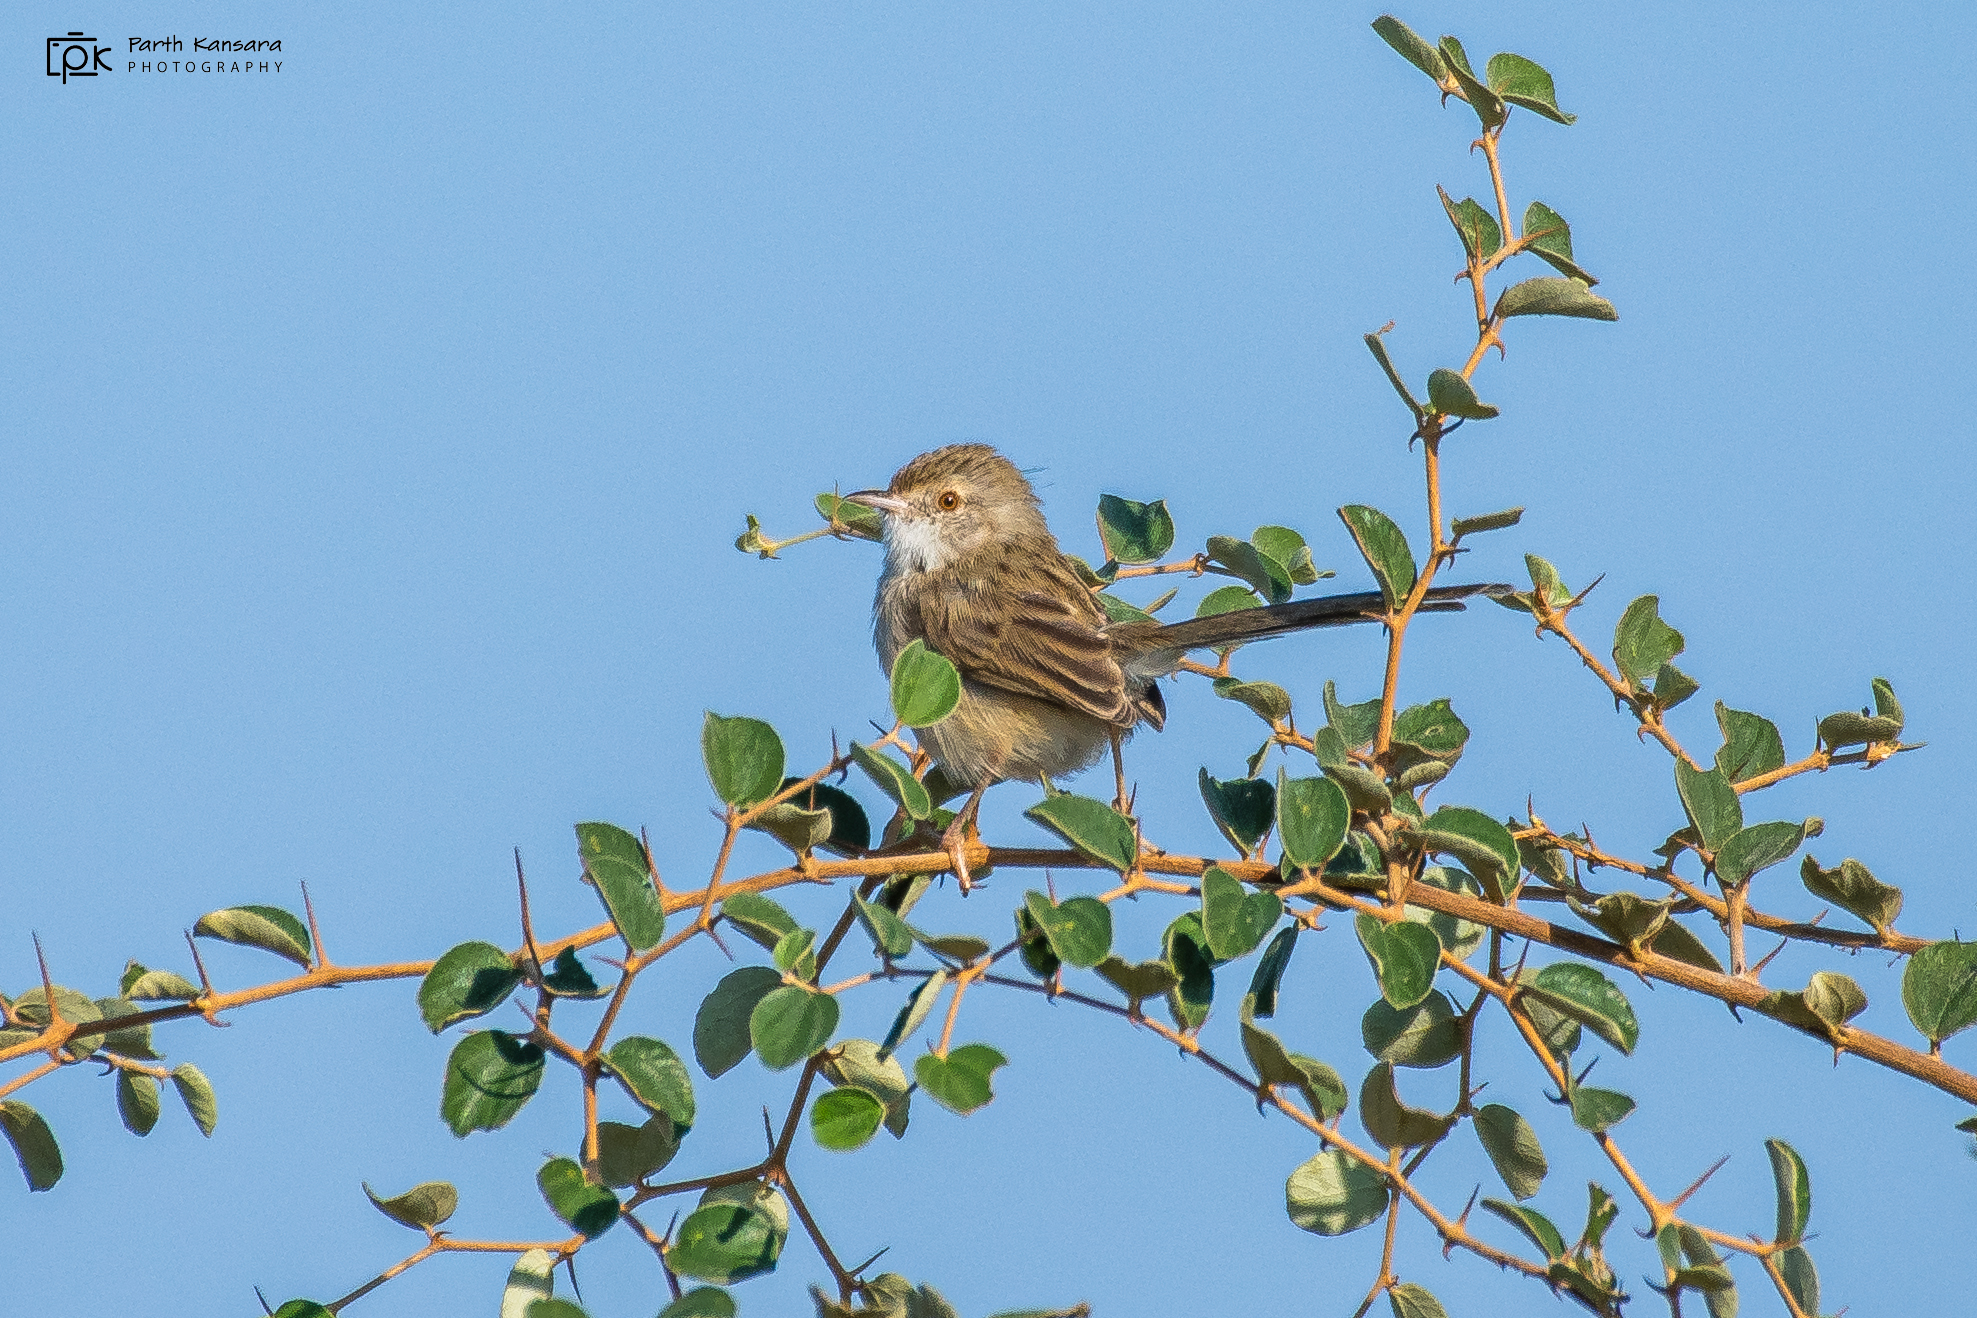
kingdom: Animalia
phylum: Chordata
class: Aves
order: Passeriformes
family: Cisticolidae
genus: Prinia
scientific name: Prinia lepida
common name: Delicate prinia
